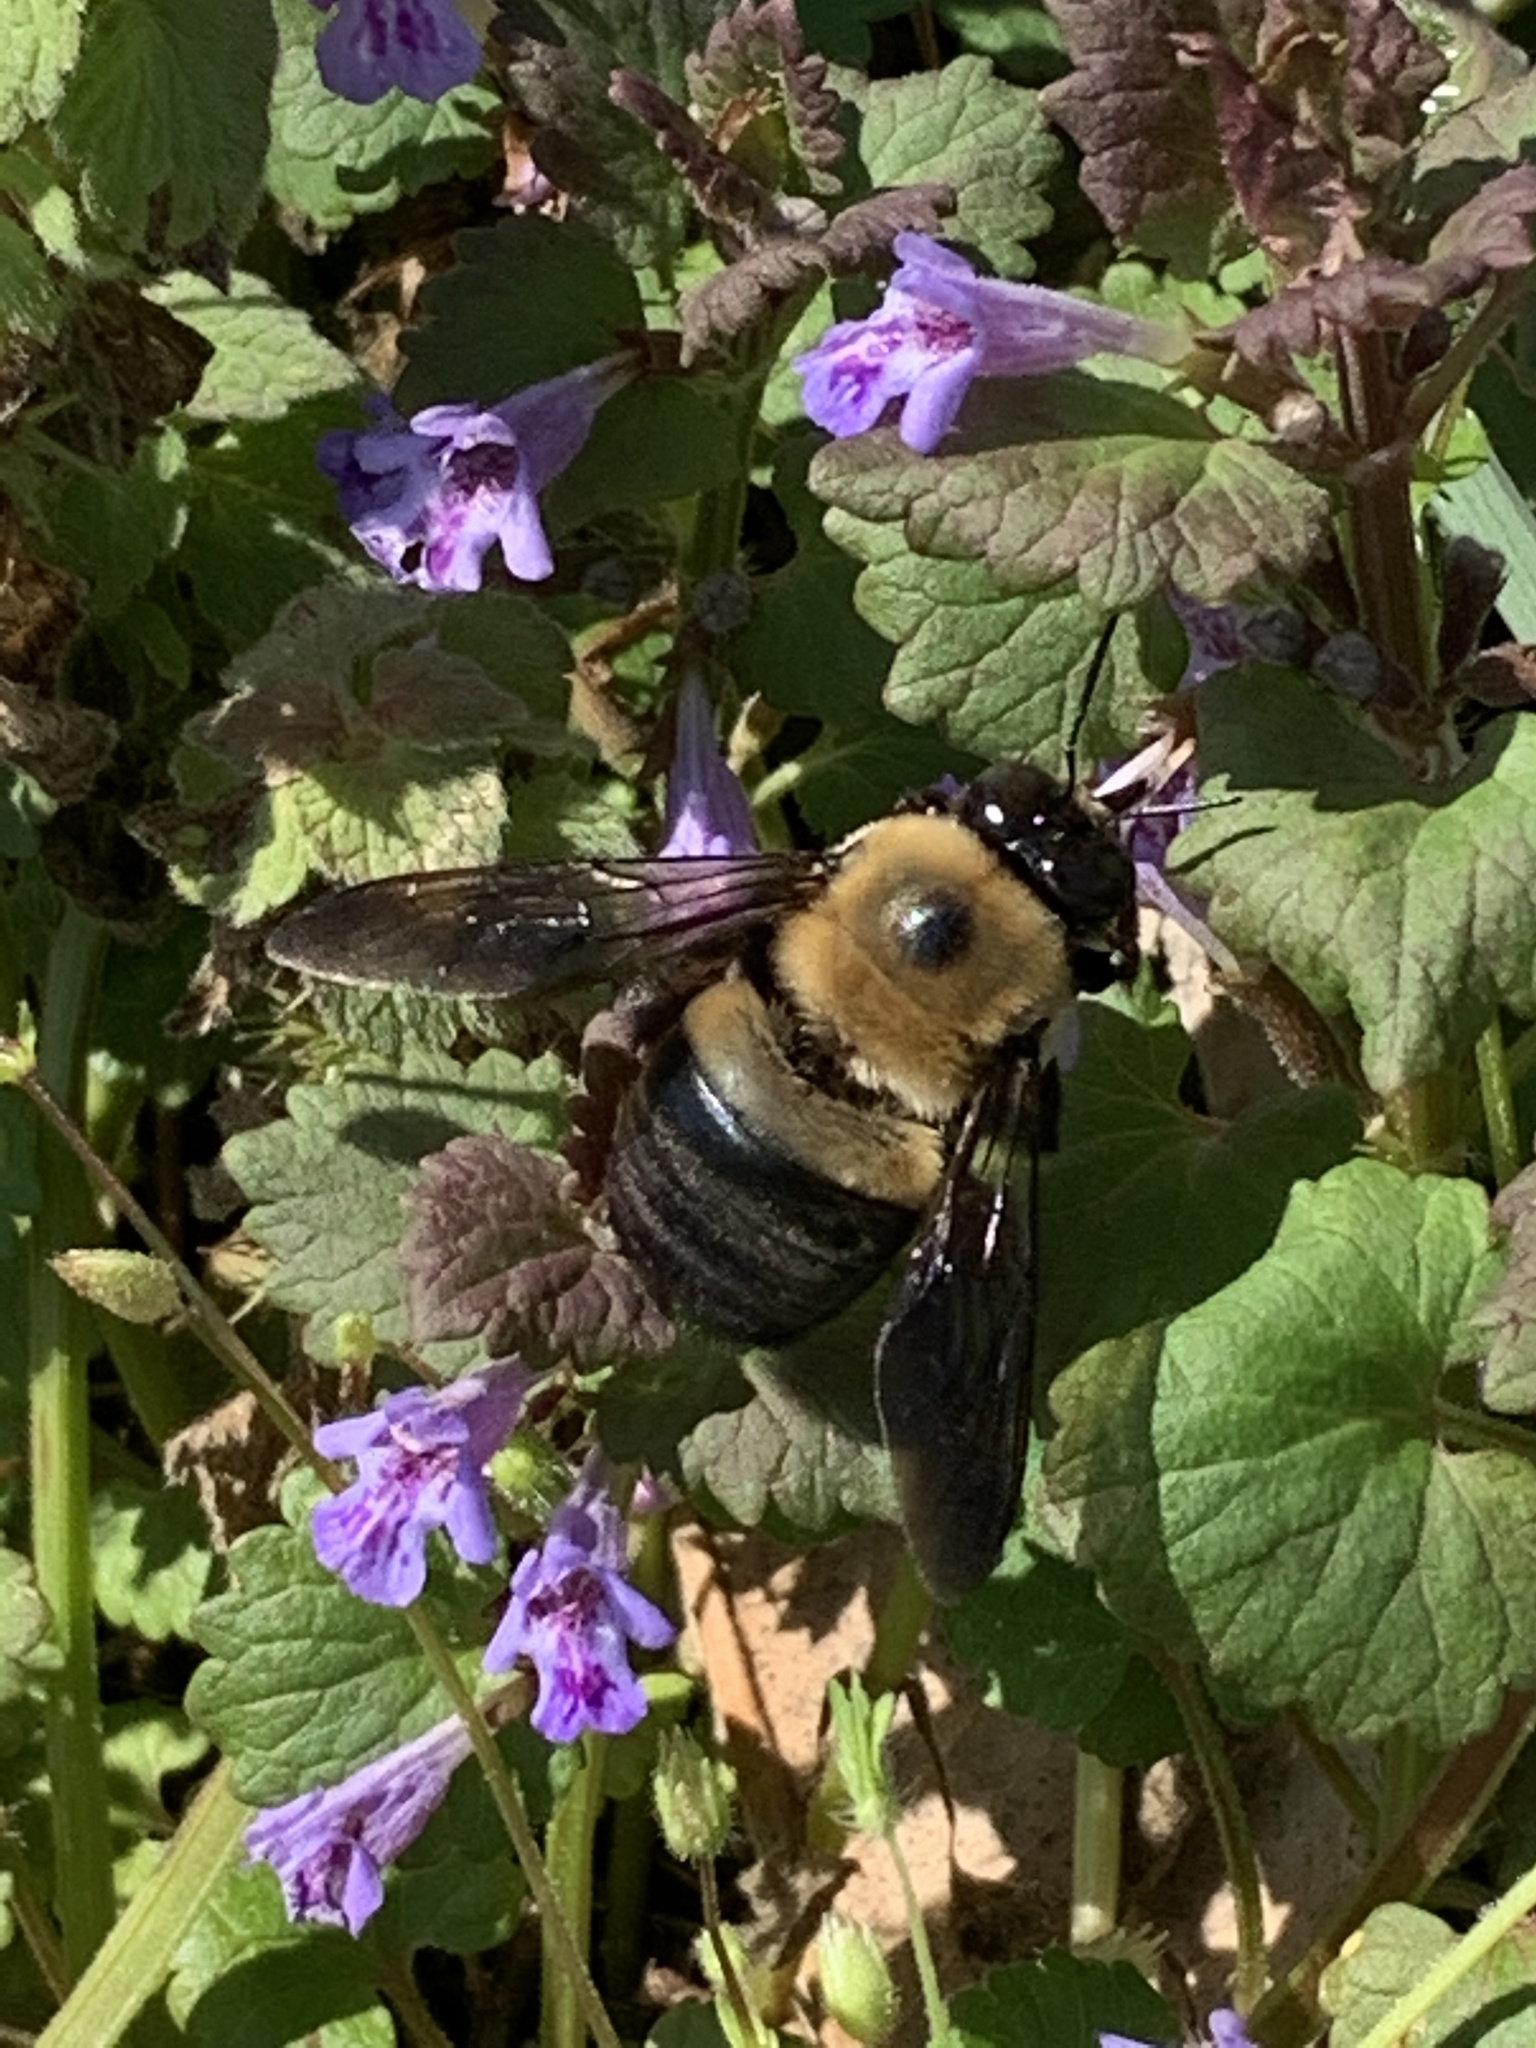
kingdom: Animalia
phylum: Arthropoda
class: Insecta
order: Hymenoptera
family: Apidae
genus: Xylocopa
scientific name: Xylocopa virginica
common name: Carpenter bee
